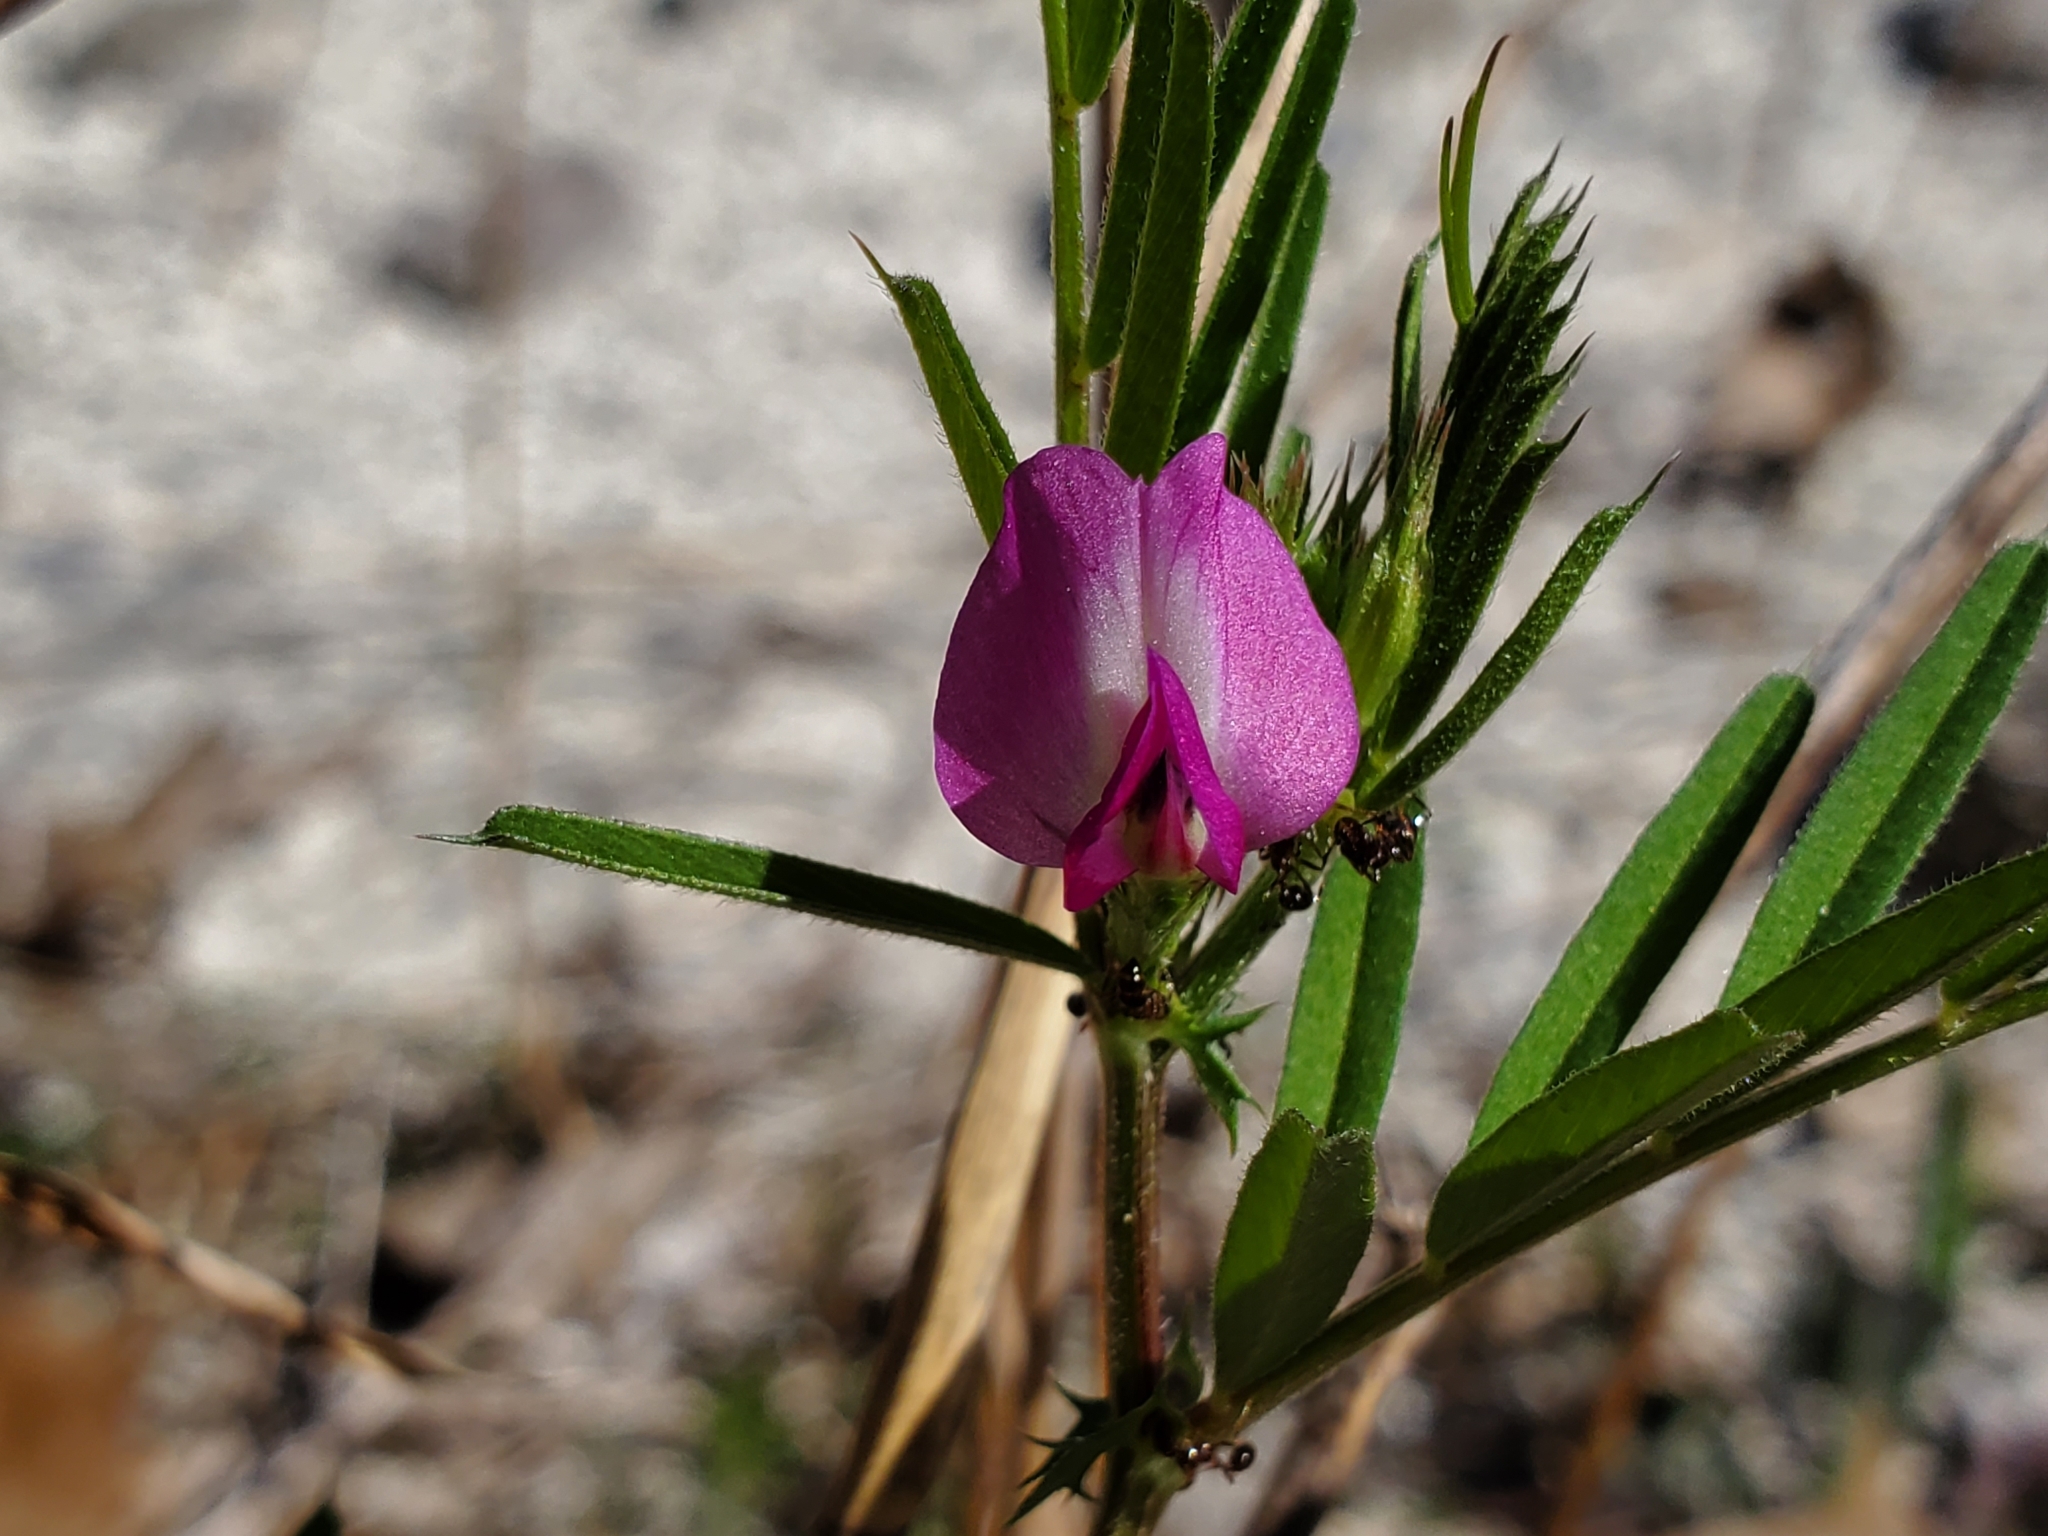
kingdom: Plantae
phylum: Tracheophyta
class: Magnoliopsida
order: Fabales
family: Fabaceae
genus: Vicia
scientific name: Vicia sativa
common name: Garden vetch
